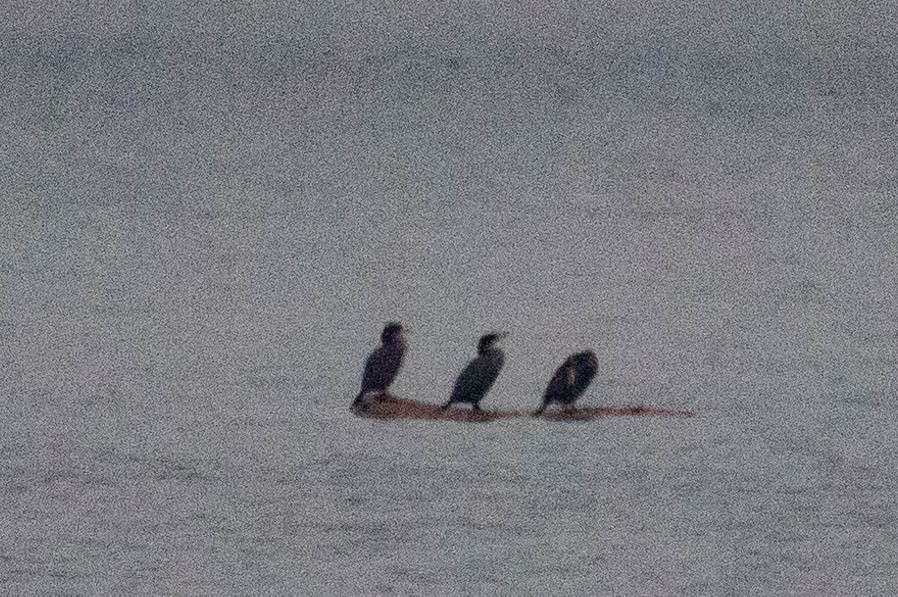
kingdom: Animalia
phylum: Chordata
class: Aves
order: Suliformes
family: Phalacrocoracidae
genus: Phalacrocorax
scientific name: Phalacrocorax auritus
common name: Double-crested cormorant
